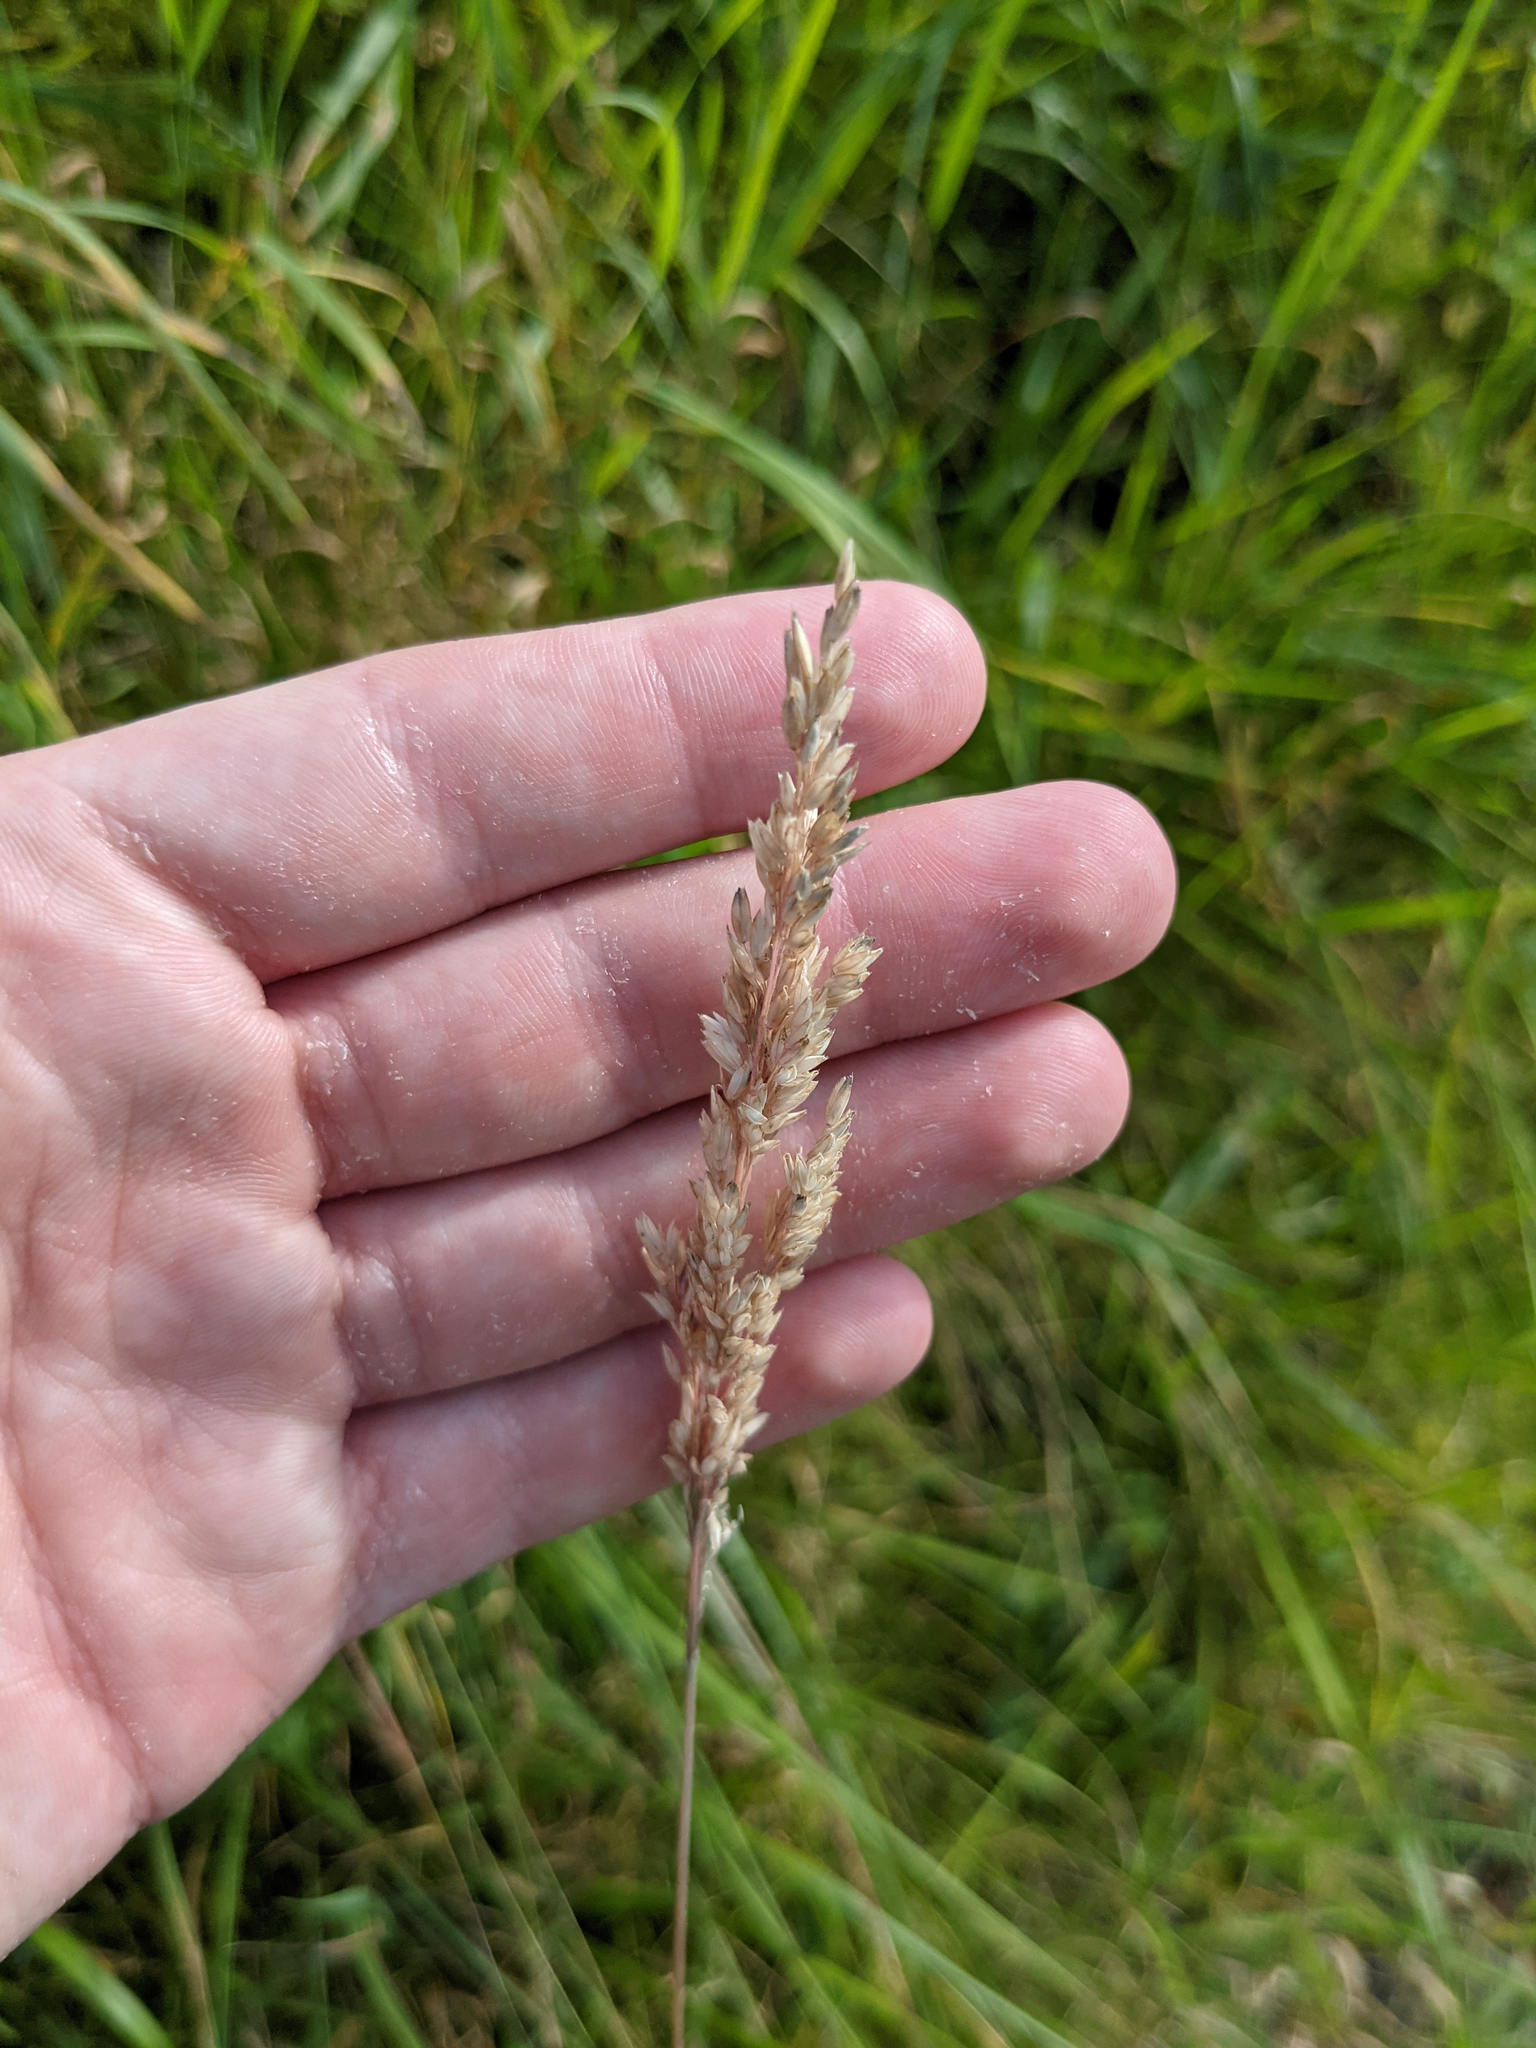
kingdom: Plantae
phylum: Tracheophyta
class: Liliopsida
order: Poales
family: Poaceae
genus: Holcus
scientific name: Holcus lanatus
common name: Yorkshire-fog
